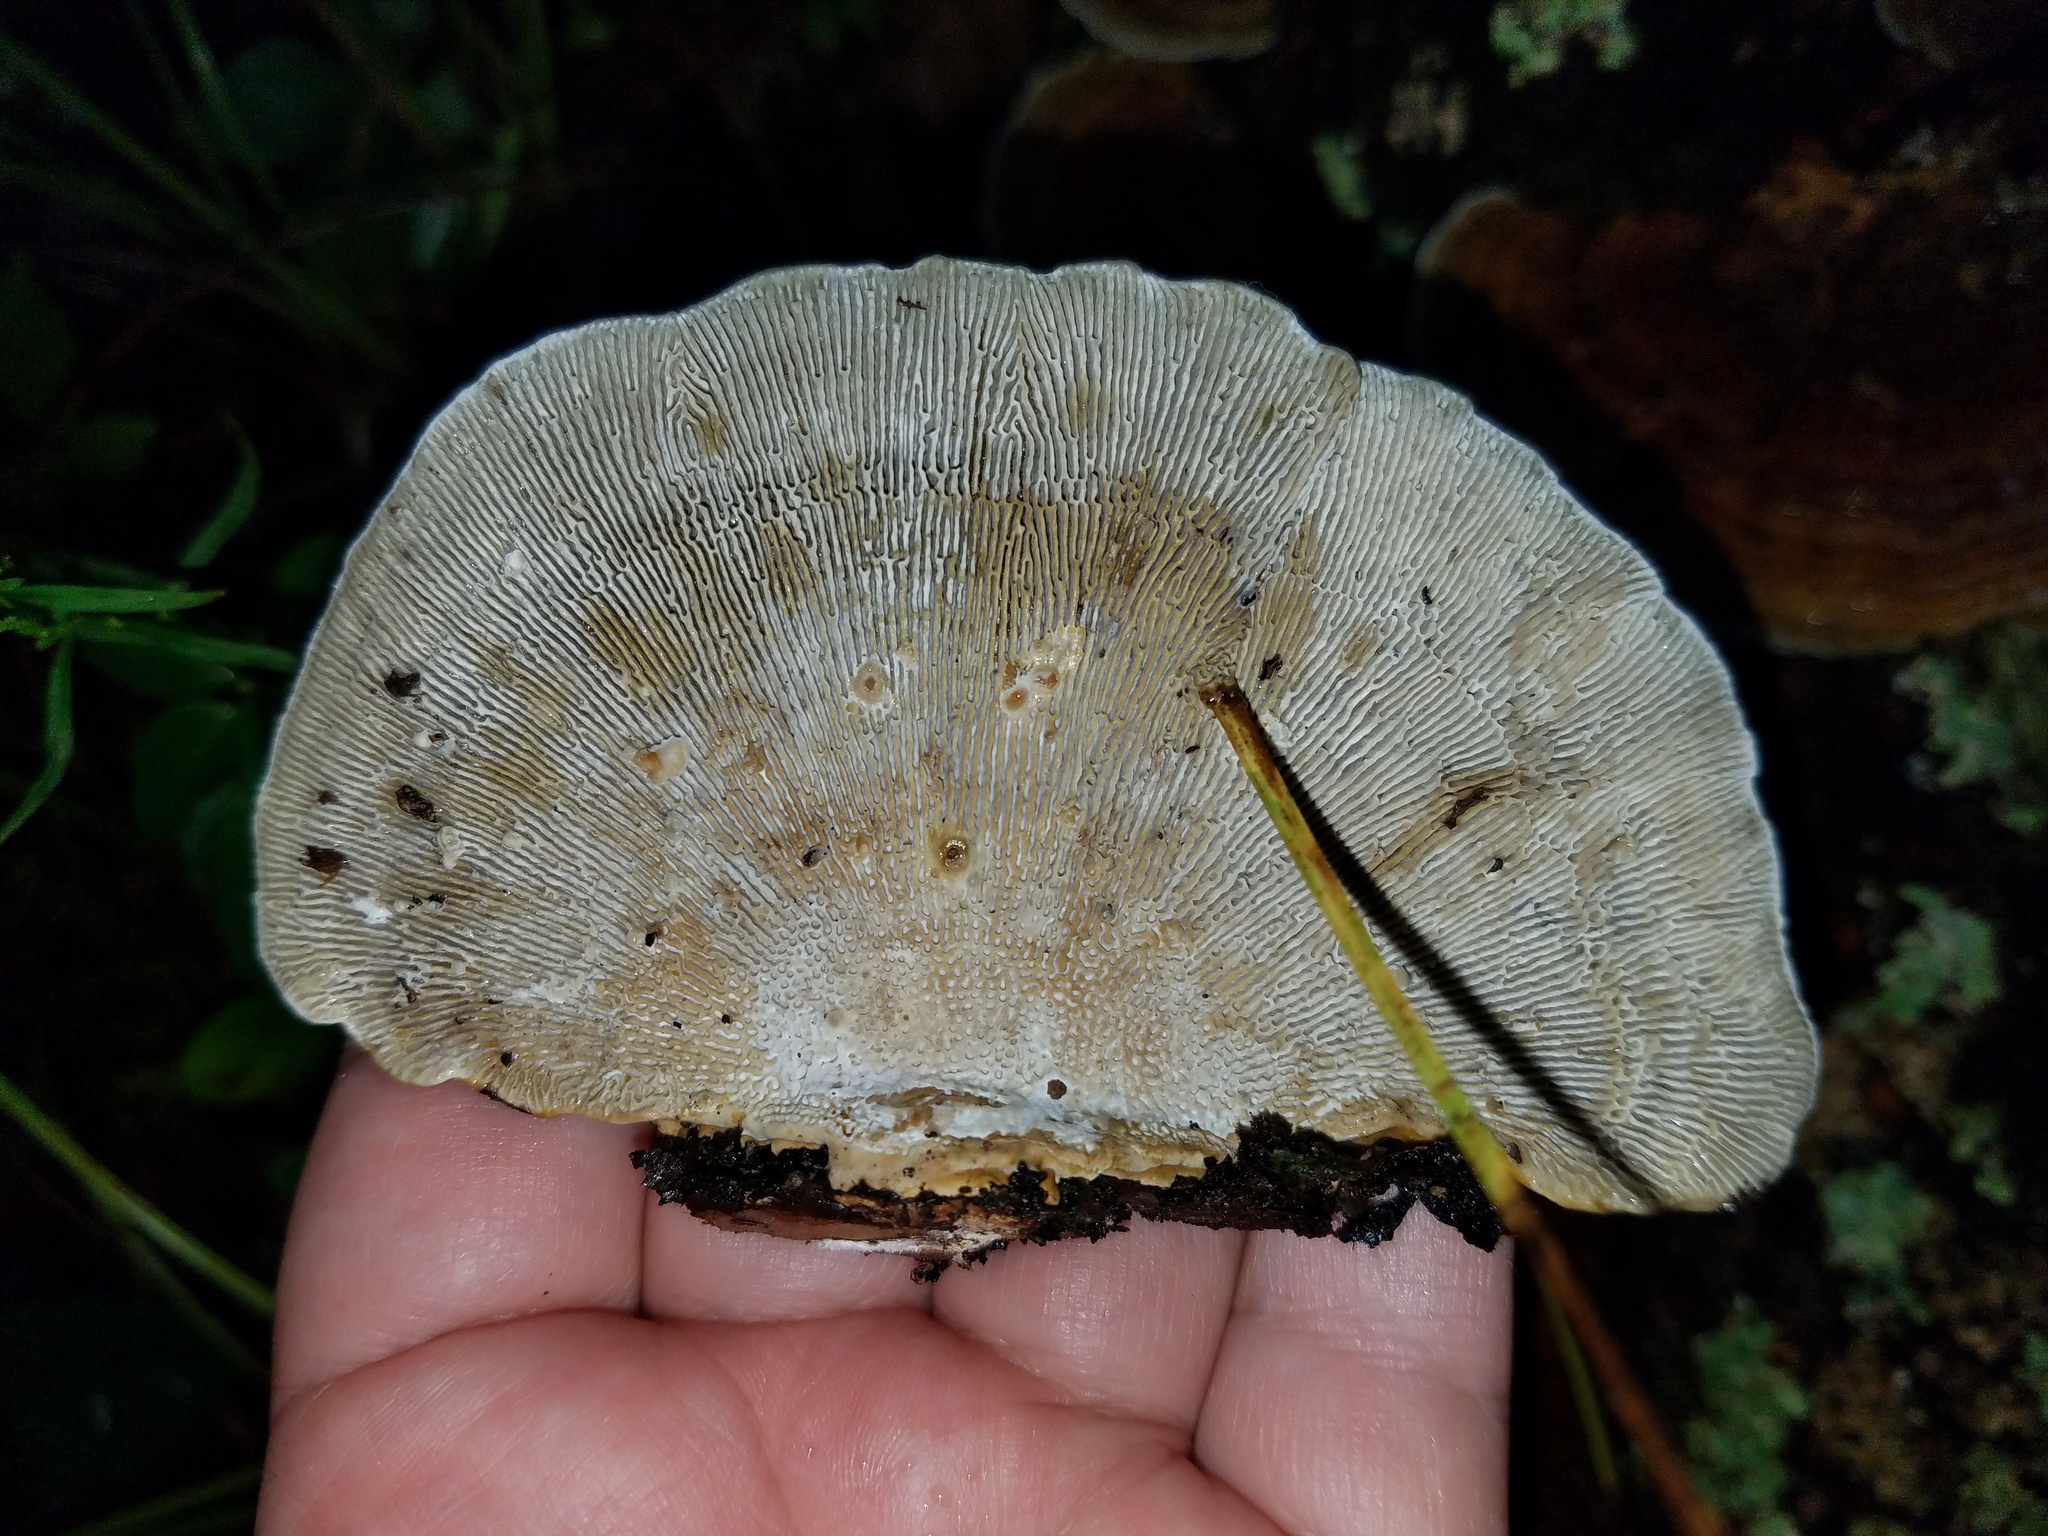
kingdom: Fungi
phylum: Basidiomycota
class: Agaricomycetes
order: Polyporales
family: Polyporaceae
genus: Daedaleopsis
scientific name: Daedaleopsis confragosa
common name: Blushing bracket
